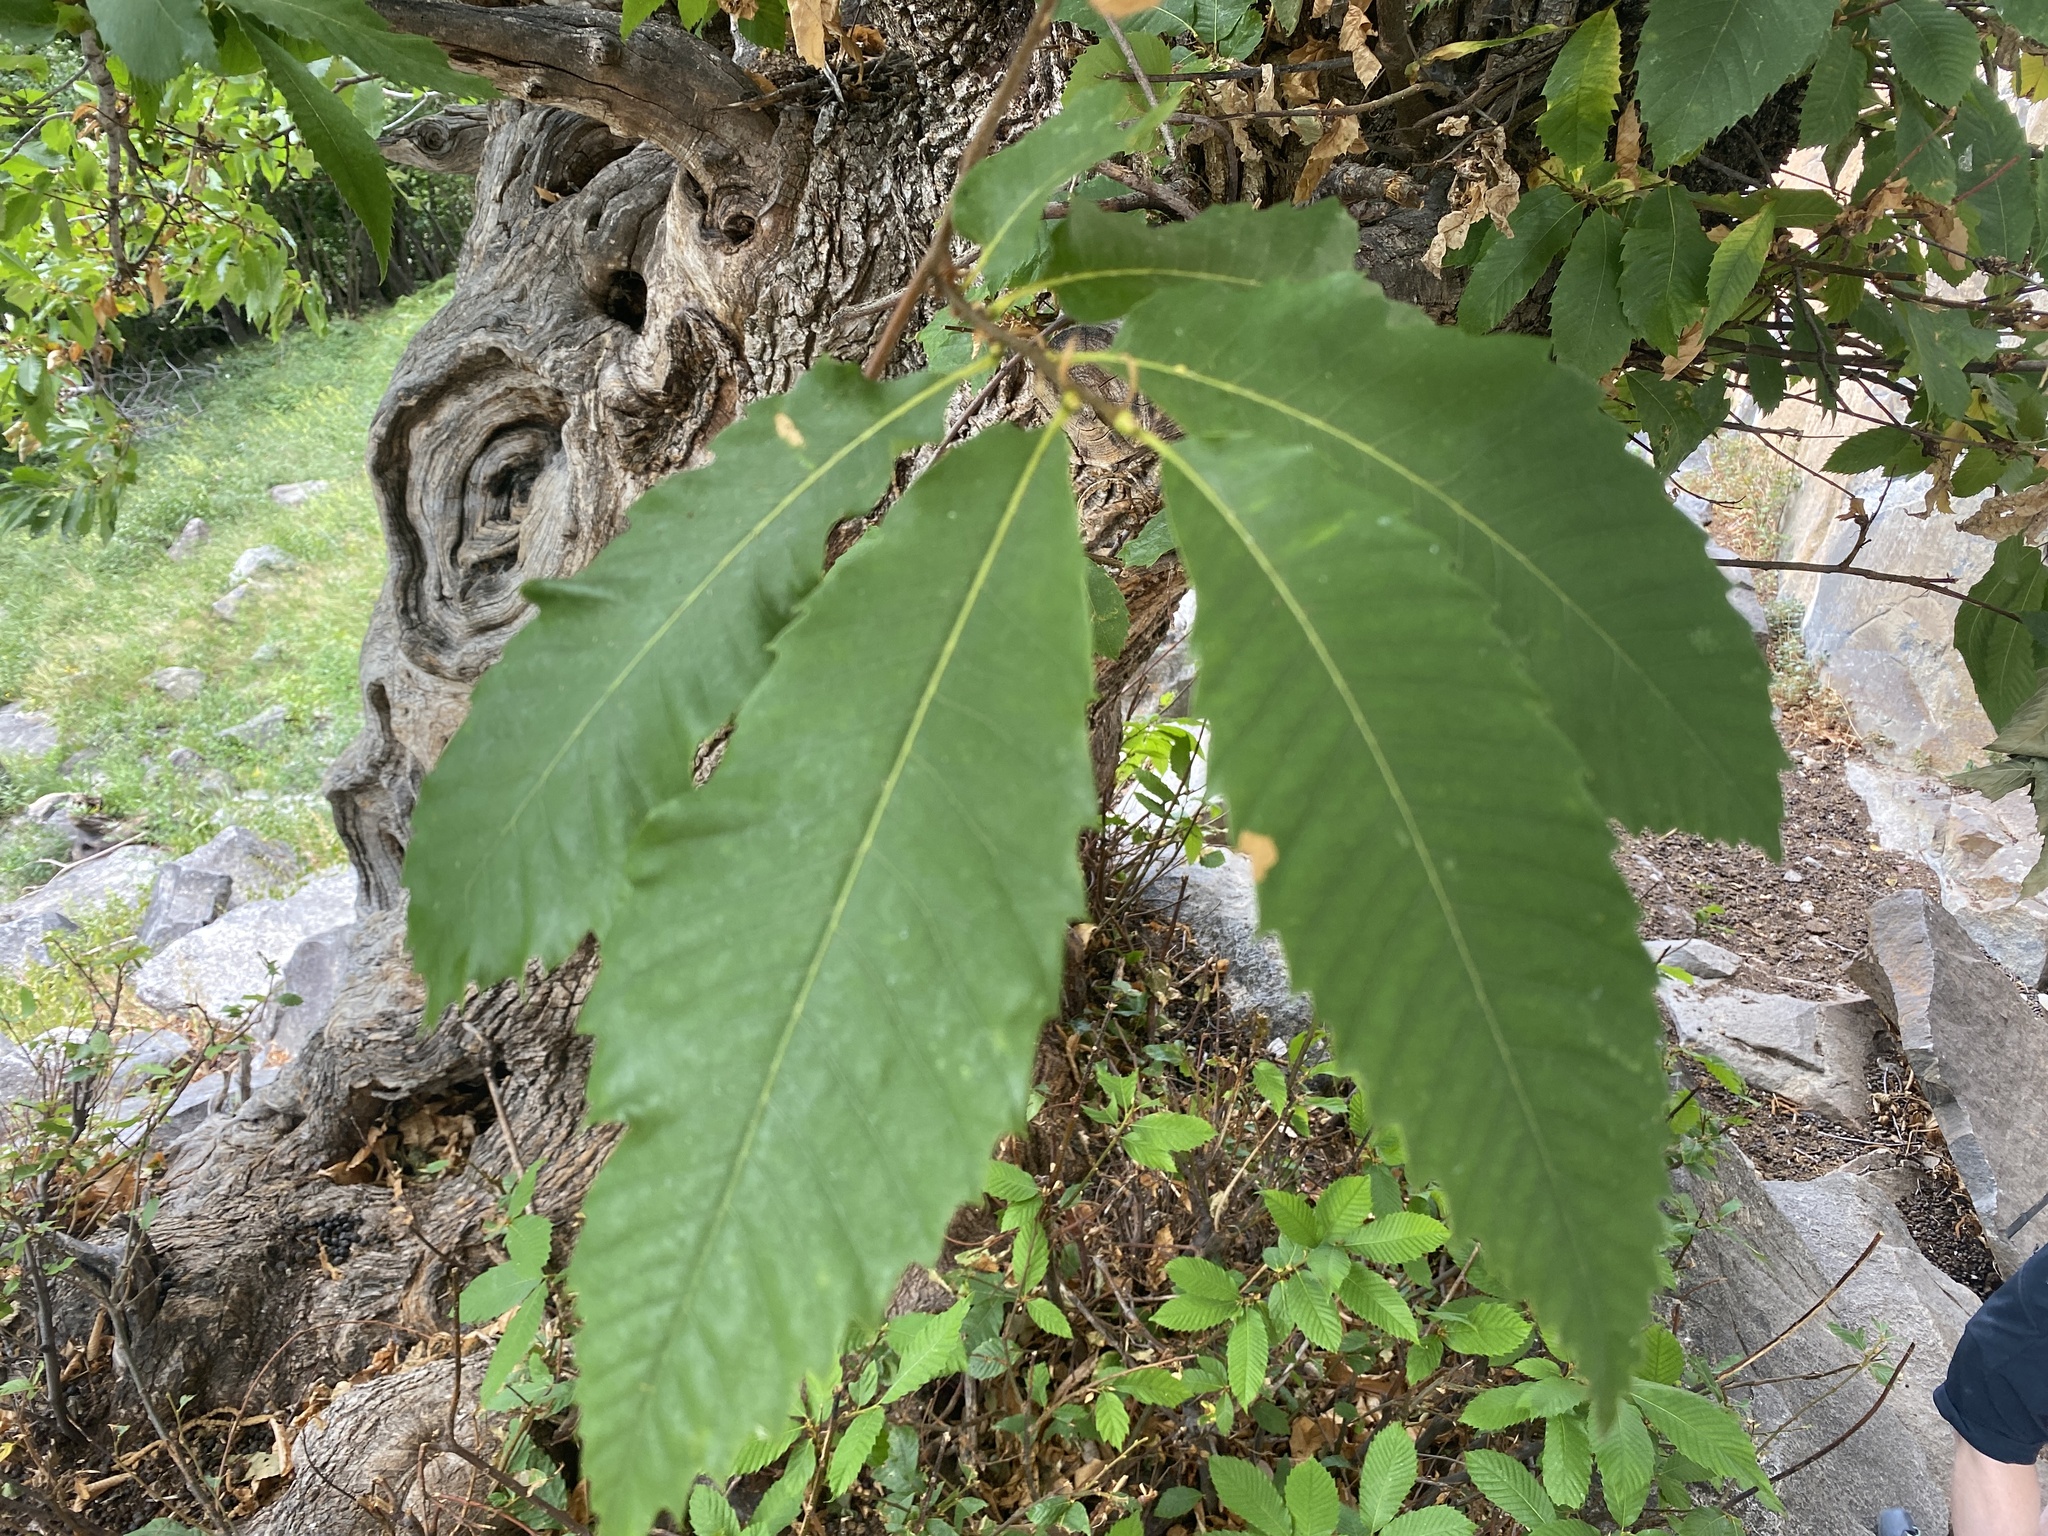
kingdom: Plantae
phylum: Tracheophyta
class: Magnoliopsida
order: Fagales
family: Fagaceae
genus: Castanea
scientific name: Castanea sativa
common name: Sweet chestnut
